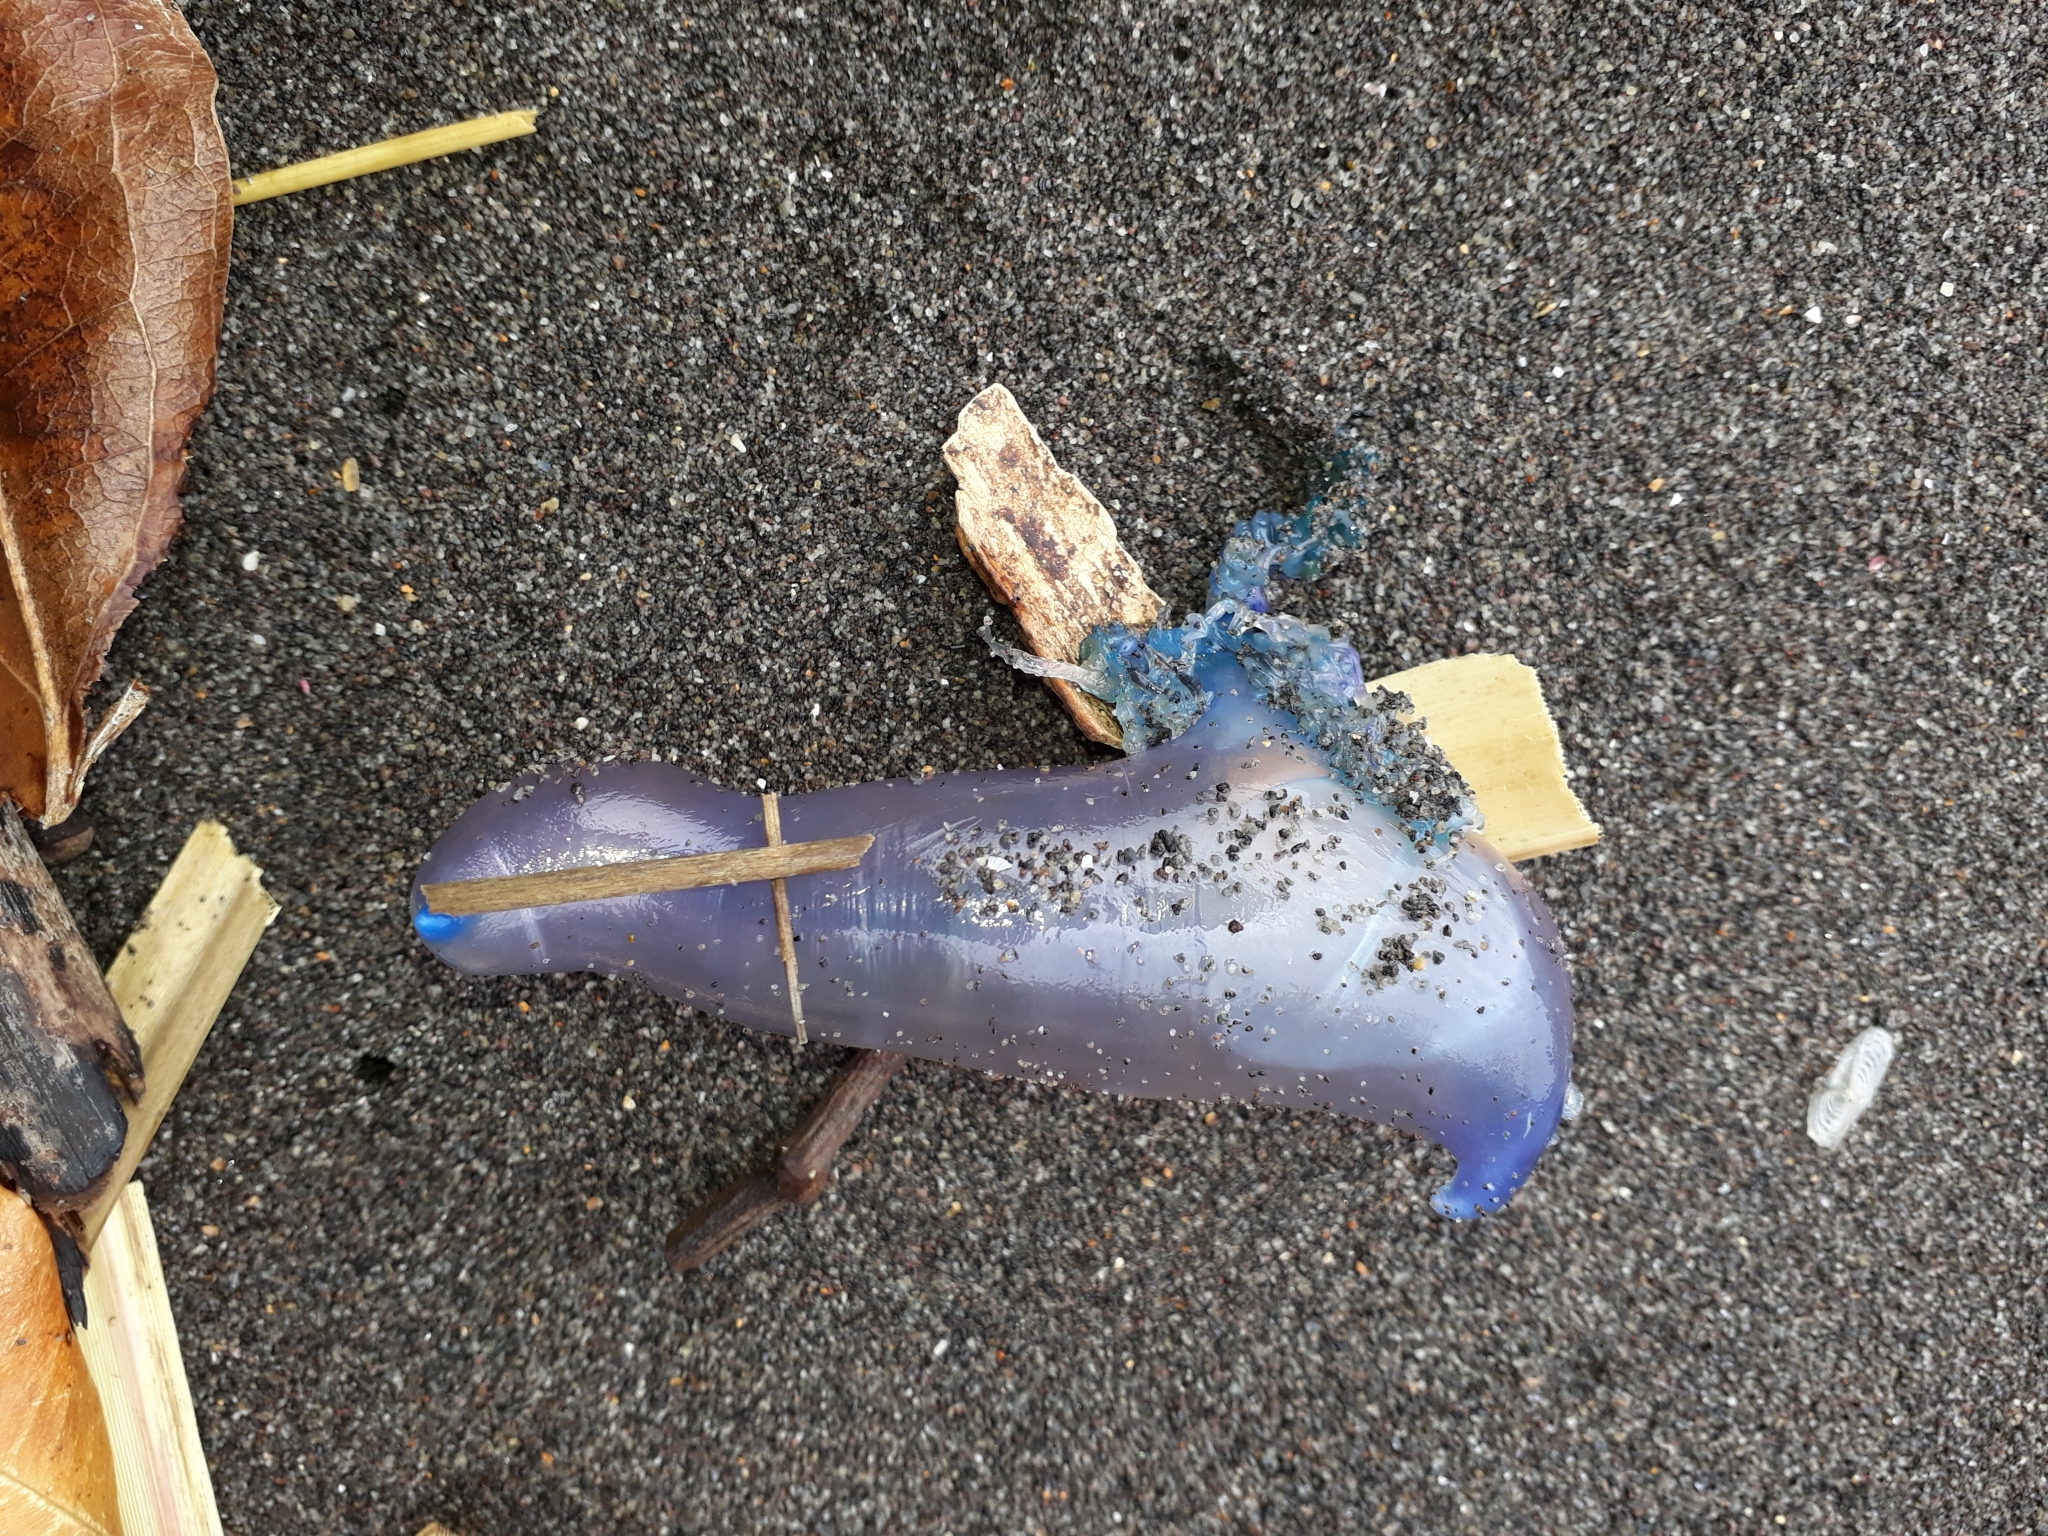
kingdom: Animalia
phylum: Cnidaria
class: Hydrozoa
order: Siphonophorae
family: Physaliidae
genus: Physalia
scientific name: Physalia physalis
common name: Portuguese man-of-war
